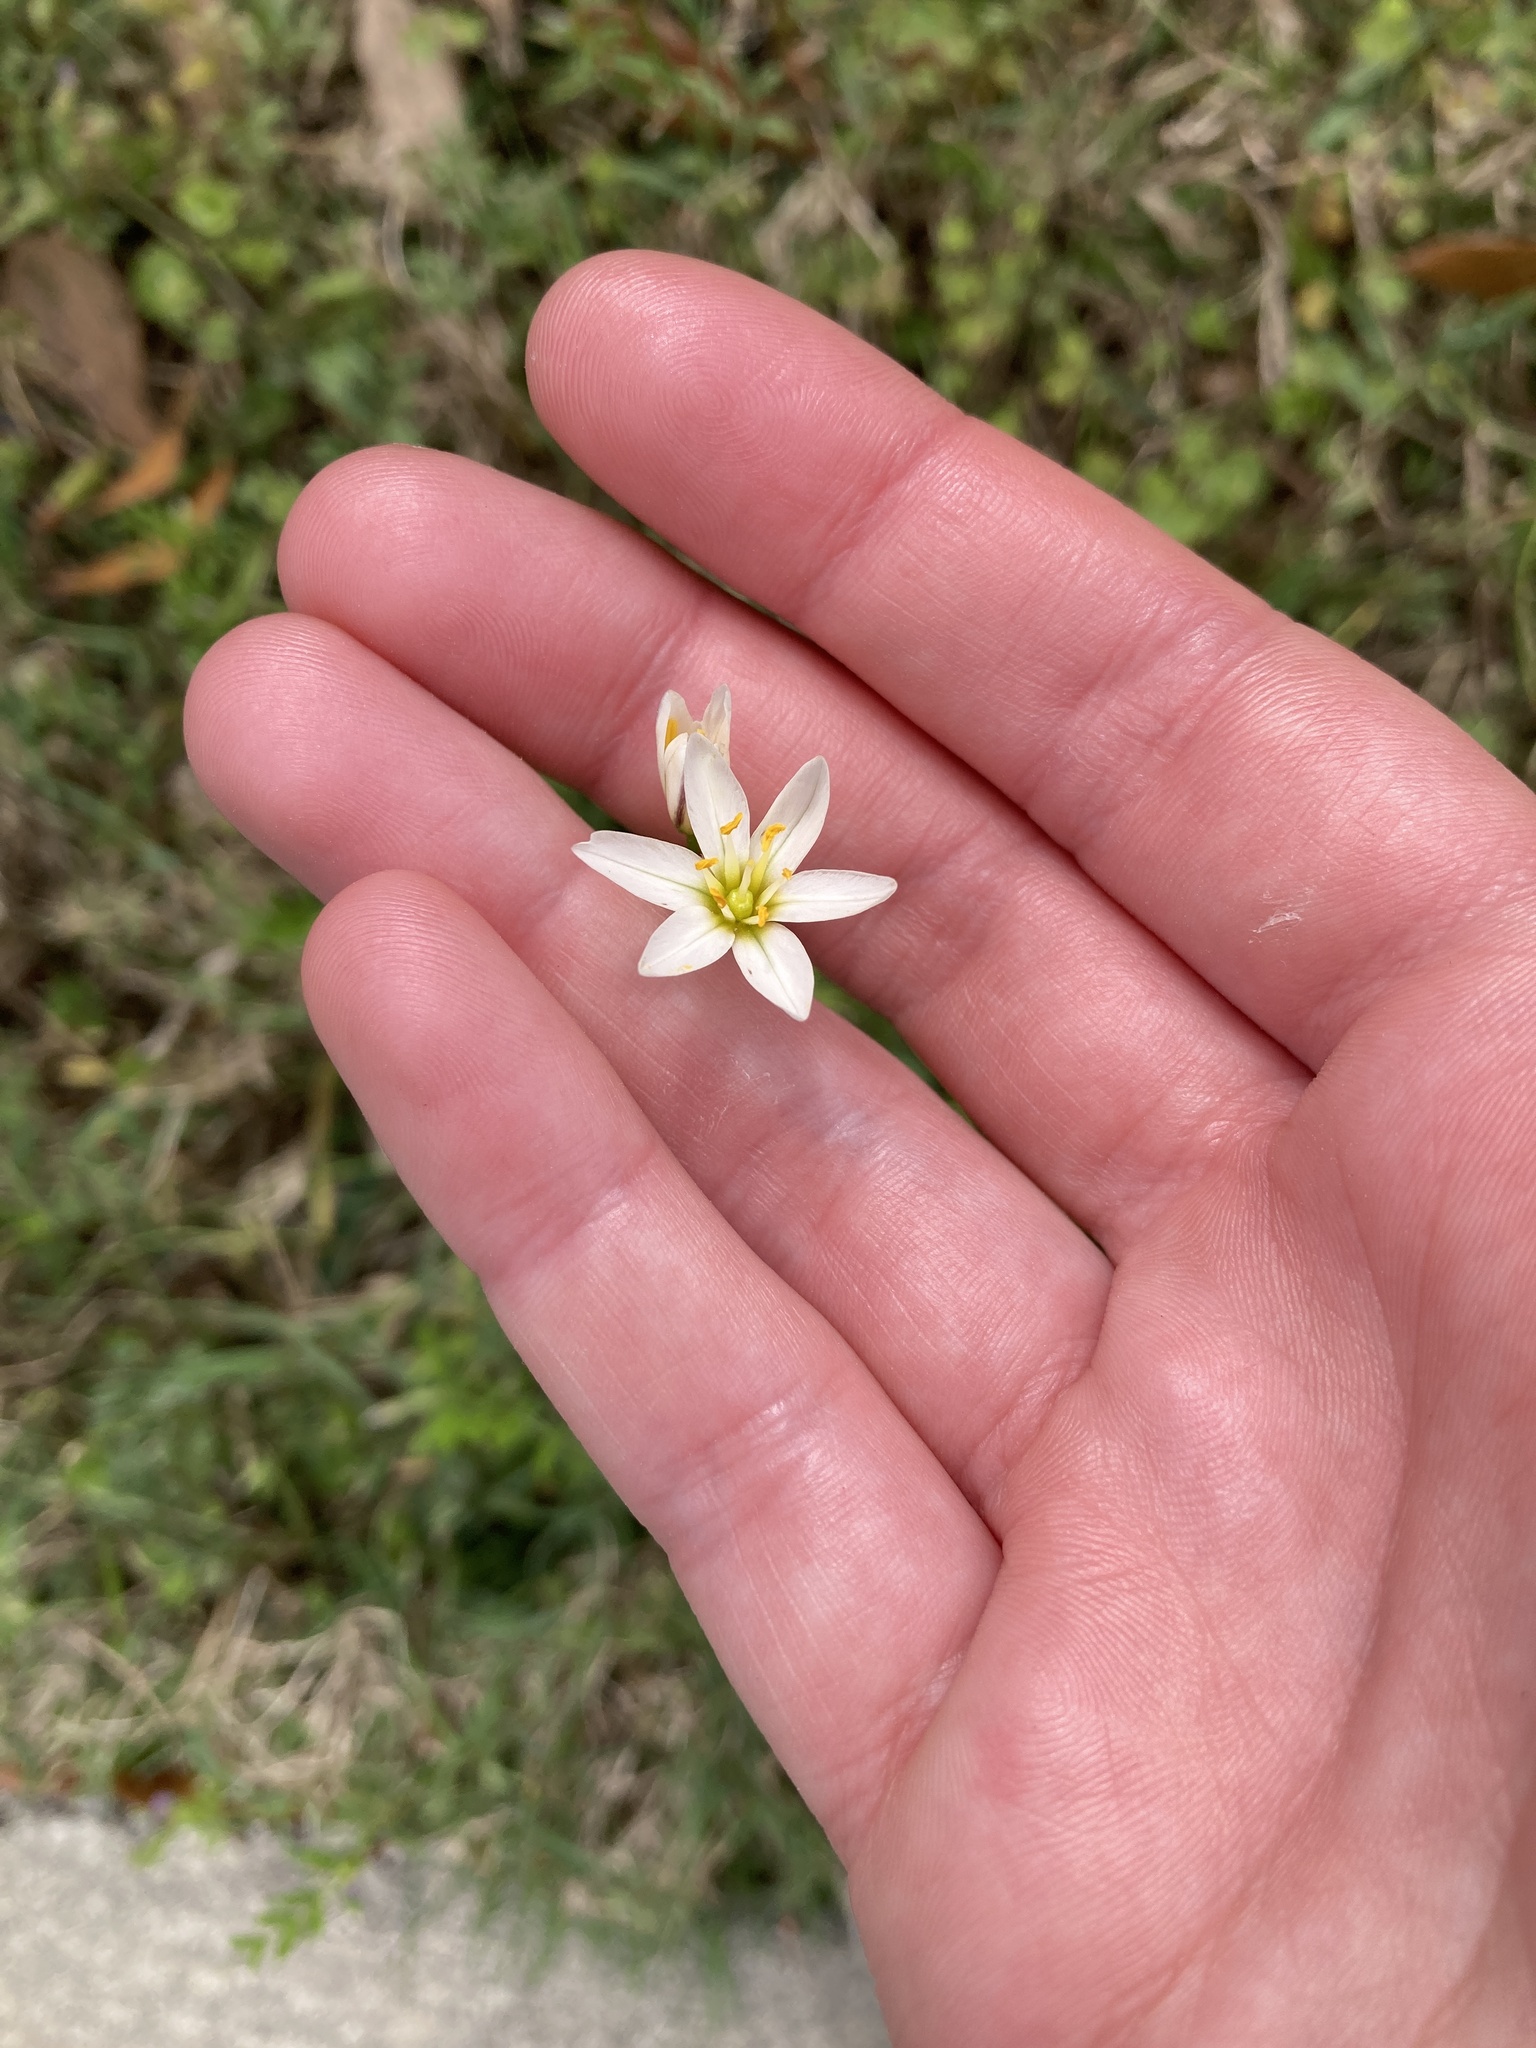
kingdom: Plantae
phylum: Tracheophyta
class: Liliopsida
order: Asparagales
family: Amaryllidaceae
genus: Nothoscordum
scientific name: Nothoscordum bivalve
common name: Crow-poison
